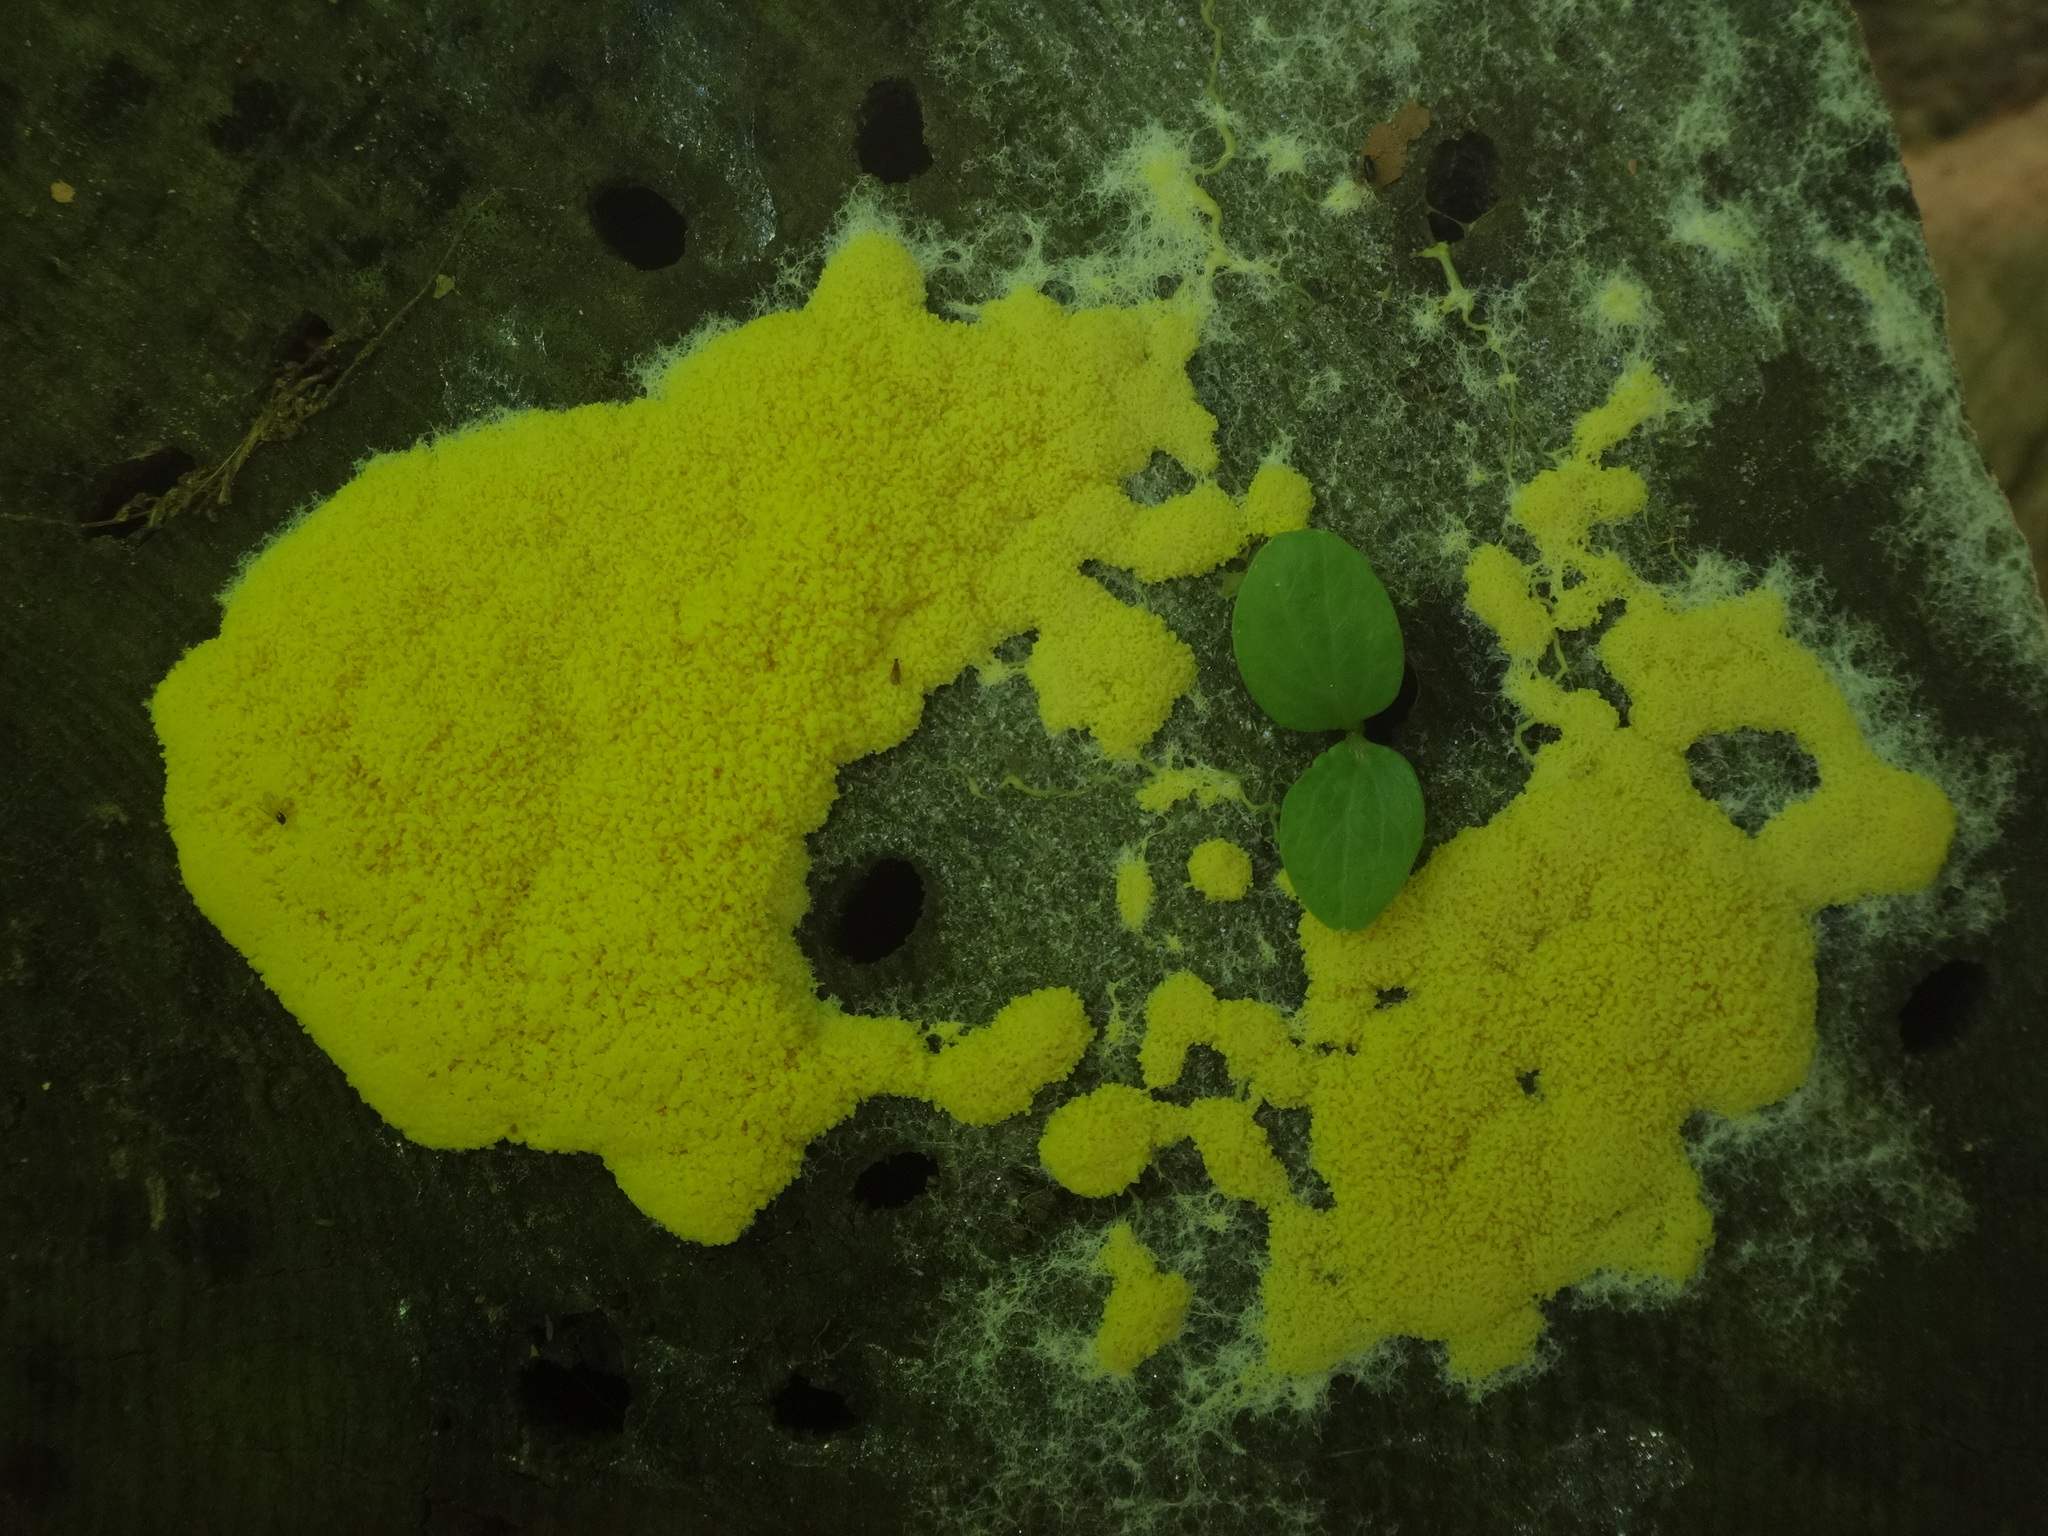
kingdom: Protozoa
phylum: Mycetozoa
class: Myxomycetes
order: Physarales
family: Physaraceae
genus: Fuligo
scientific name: Fuligo septica
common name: Dog vomit slime mold
